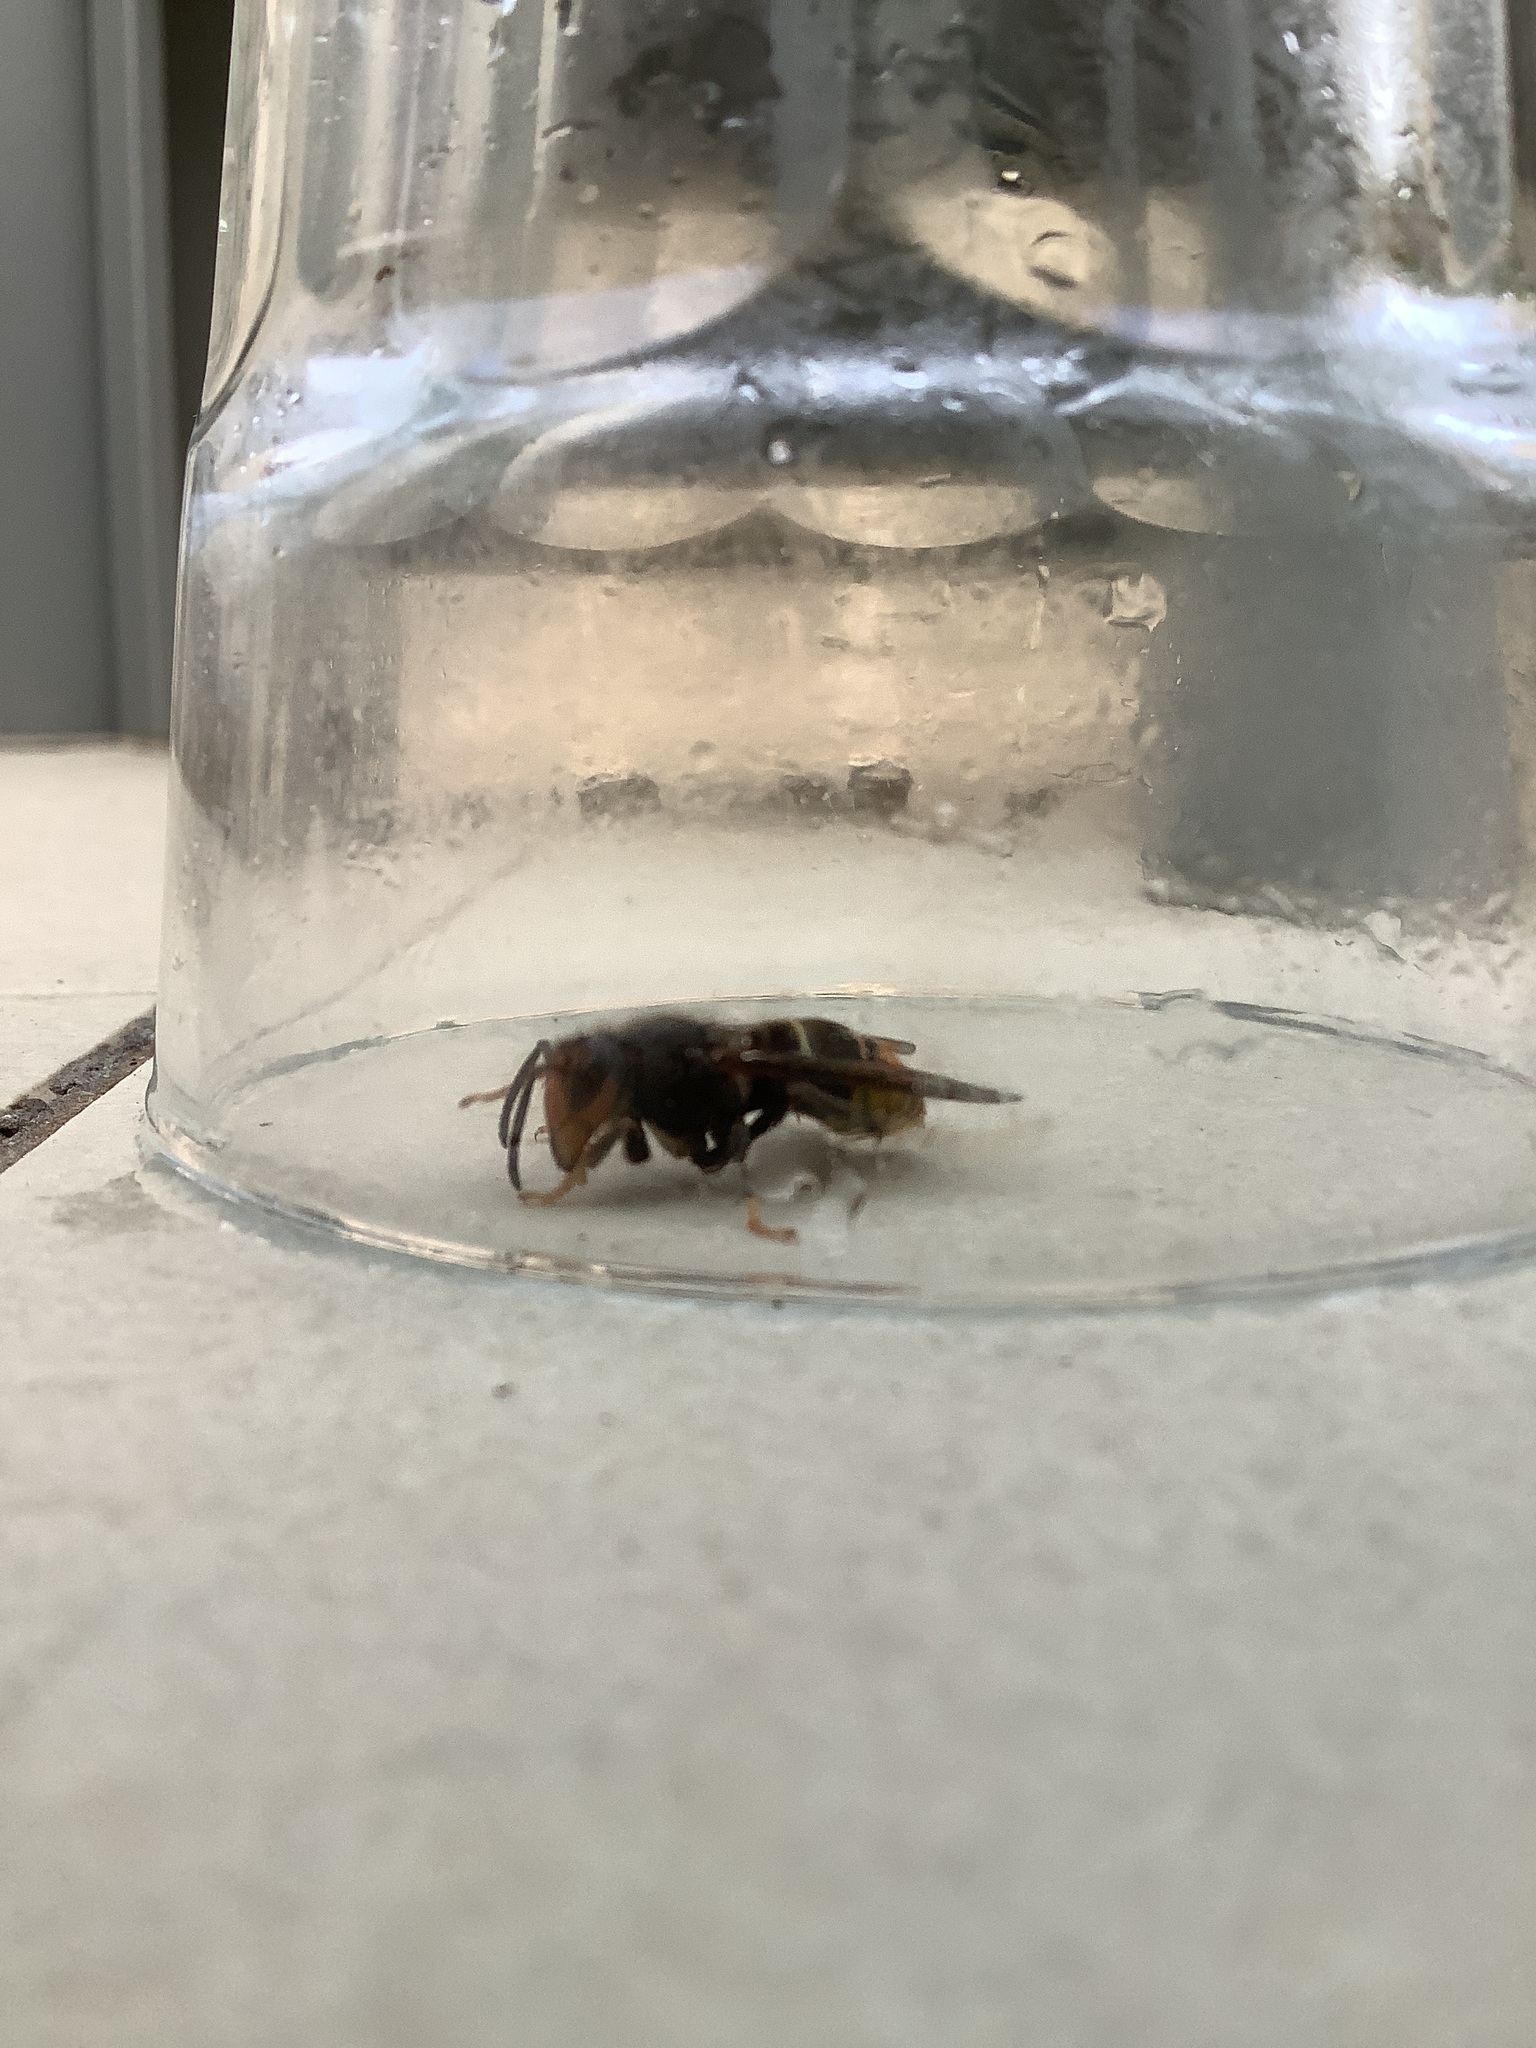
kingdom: Animalia
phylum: Arthropoda
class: Insecta
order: Hymenoptera
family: Vespidae
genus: Vespa
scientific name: Vespa velutina
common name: Asian hornet
